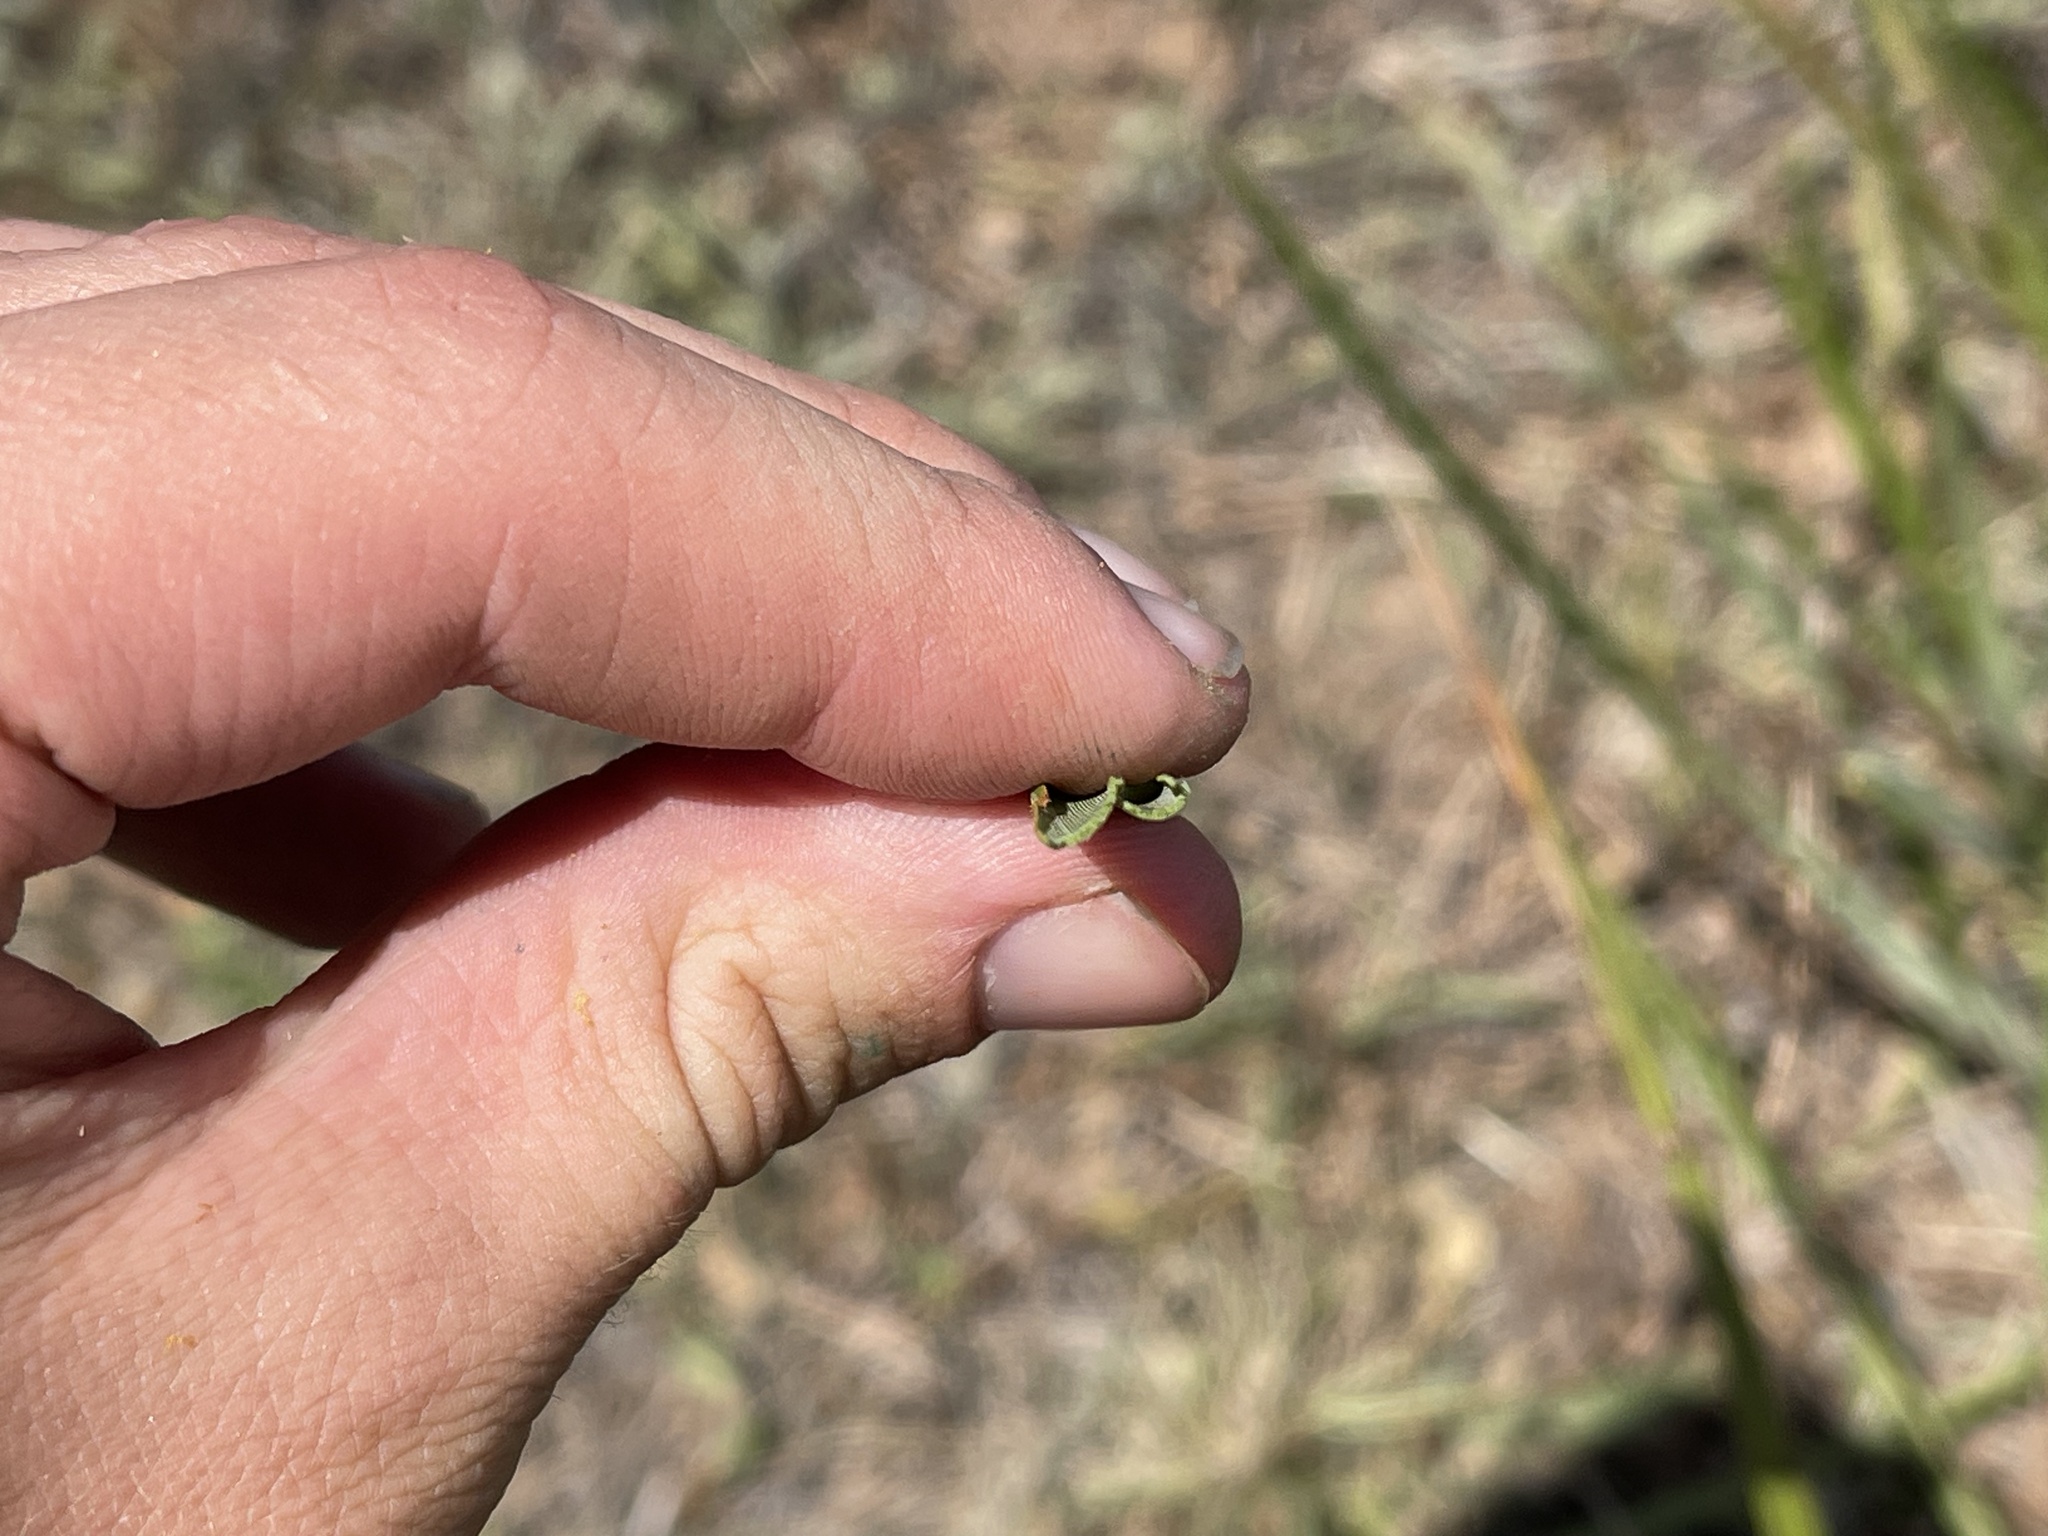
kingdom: Plantae
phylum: Tracheophyta
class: Liliopsida
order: Asparagales
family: Asphodelaceae
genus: Dianella
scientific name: Dianella revoluta
